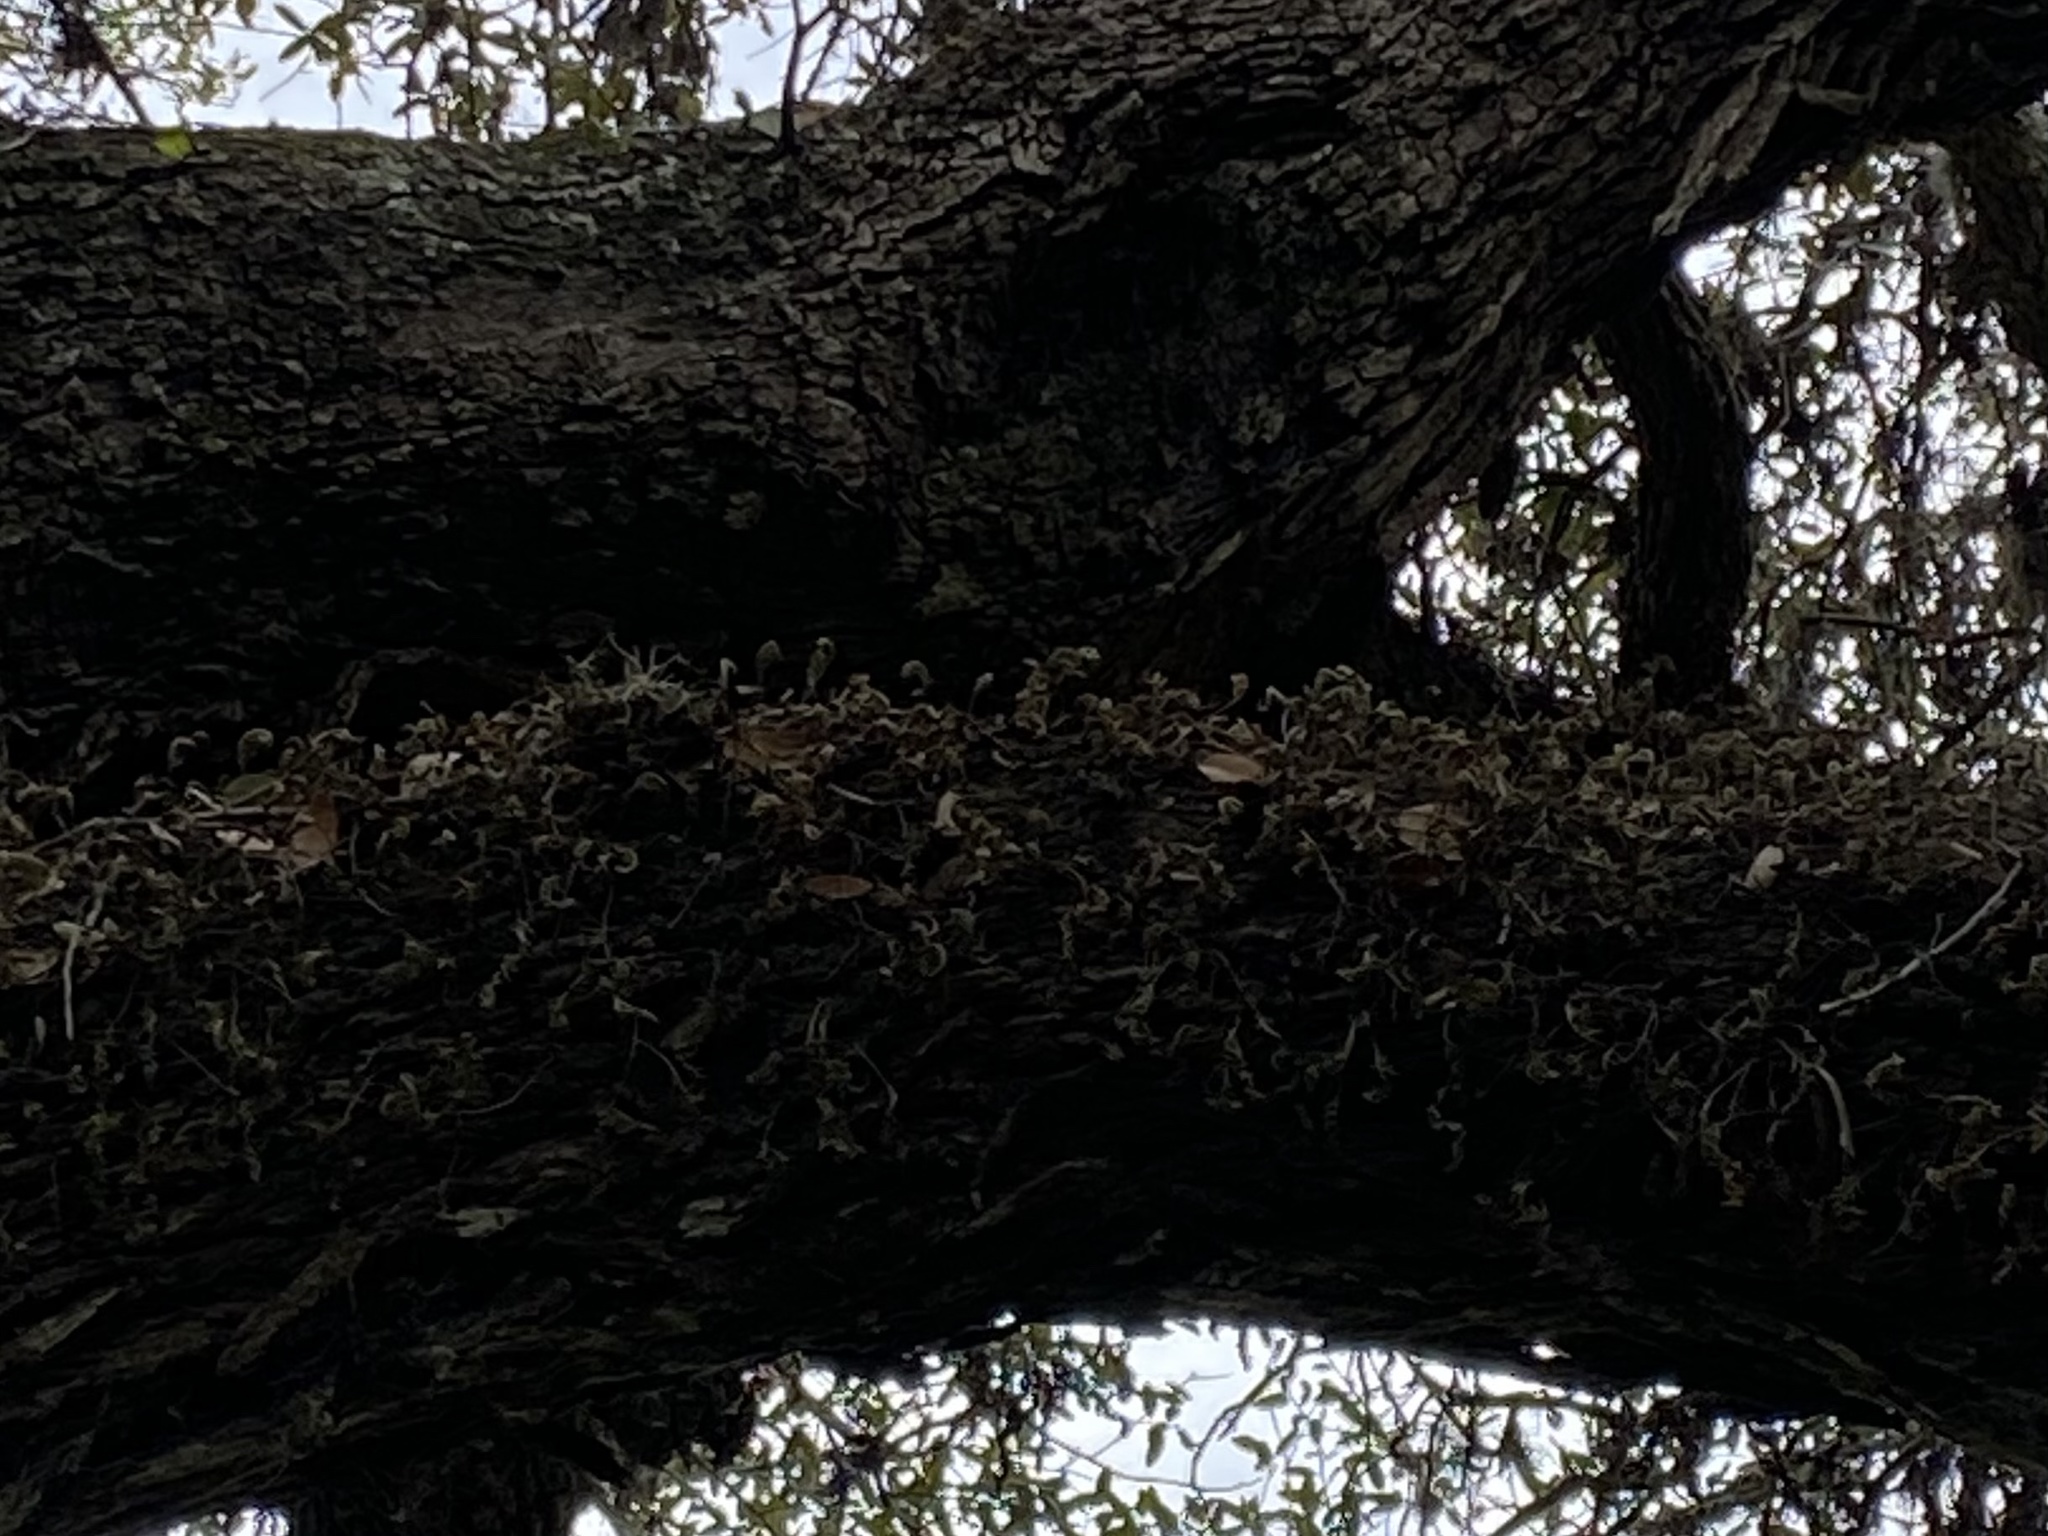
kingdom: Plantae
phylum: Tracheophyta
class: Polypodiopsida
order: Polypodiales
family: Polypodiaceae
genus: Pleopeltis
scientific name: Pleopeltis michauxiana
